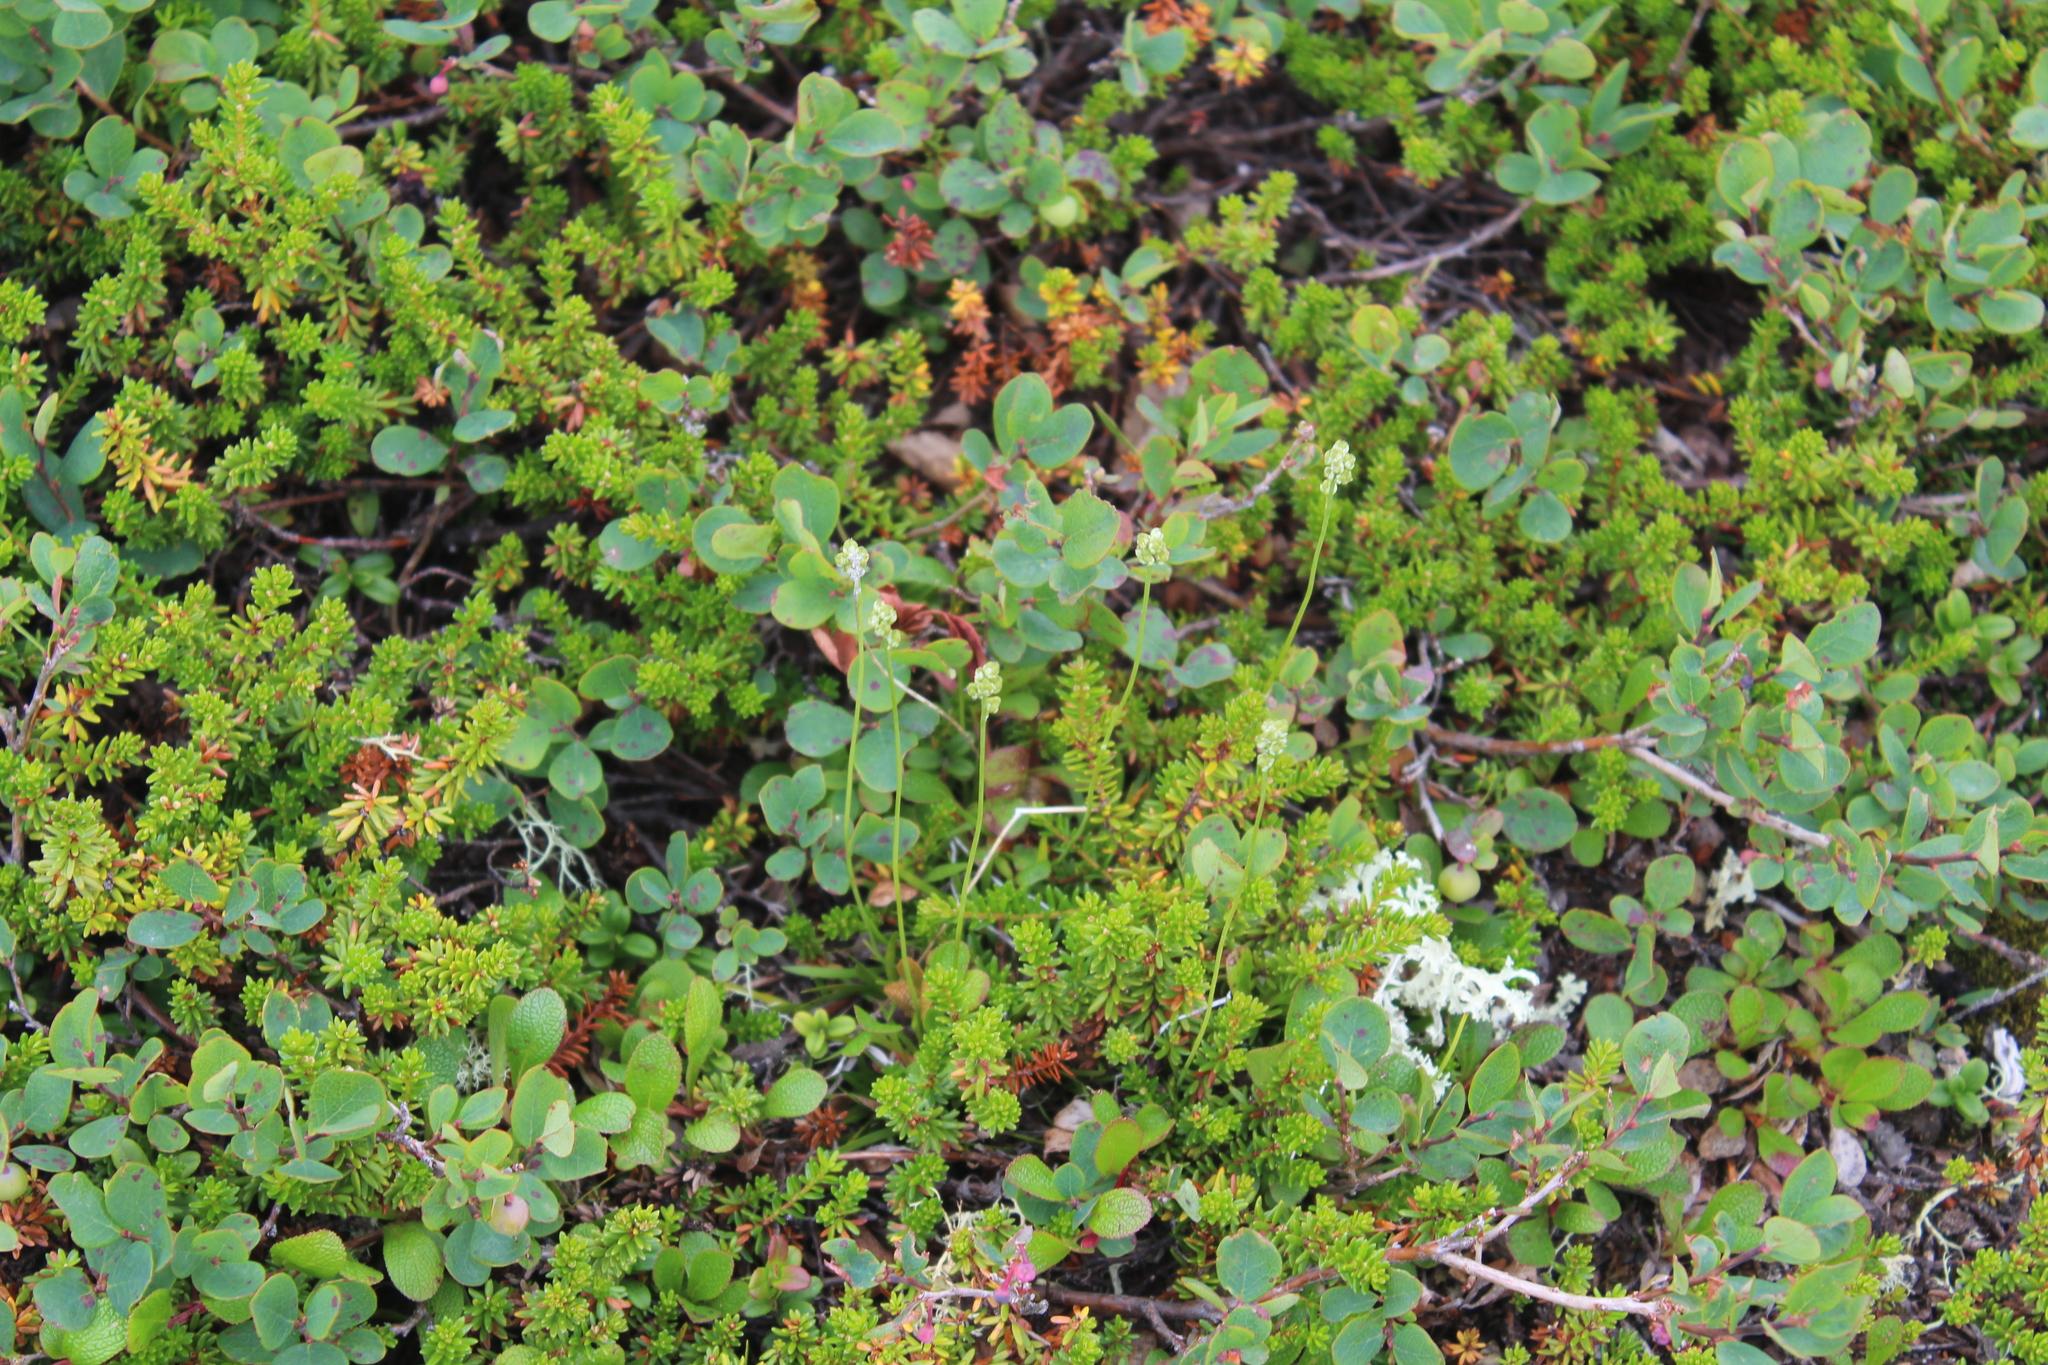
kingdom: Plantae
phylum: Tracheophyta
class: Liliopsida
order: Alismatales
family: Tofieldiaceae
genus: Tofieldia
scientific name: Tofieldia pusilla
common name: Scottish false asphodel
